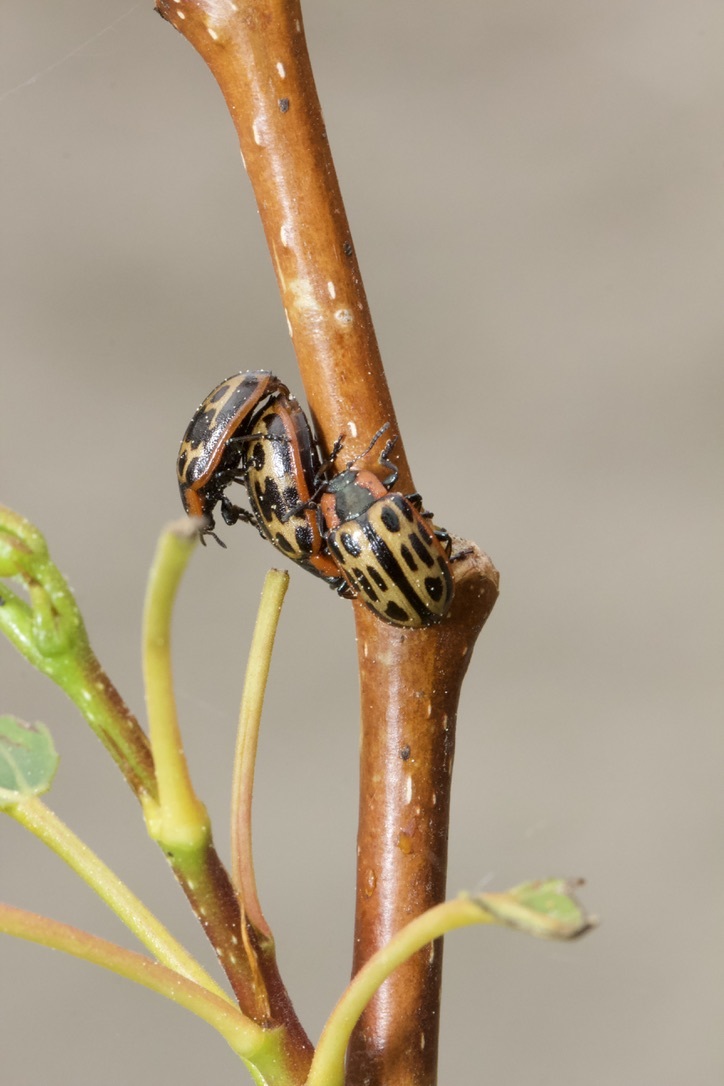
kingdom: Animalia
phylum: Arthropoda
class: Insecta
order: Coleoptera
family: Chrysomelidae
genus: Aethiopocassis
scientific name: Aethiopocassis scripta
